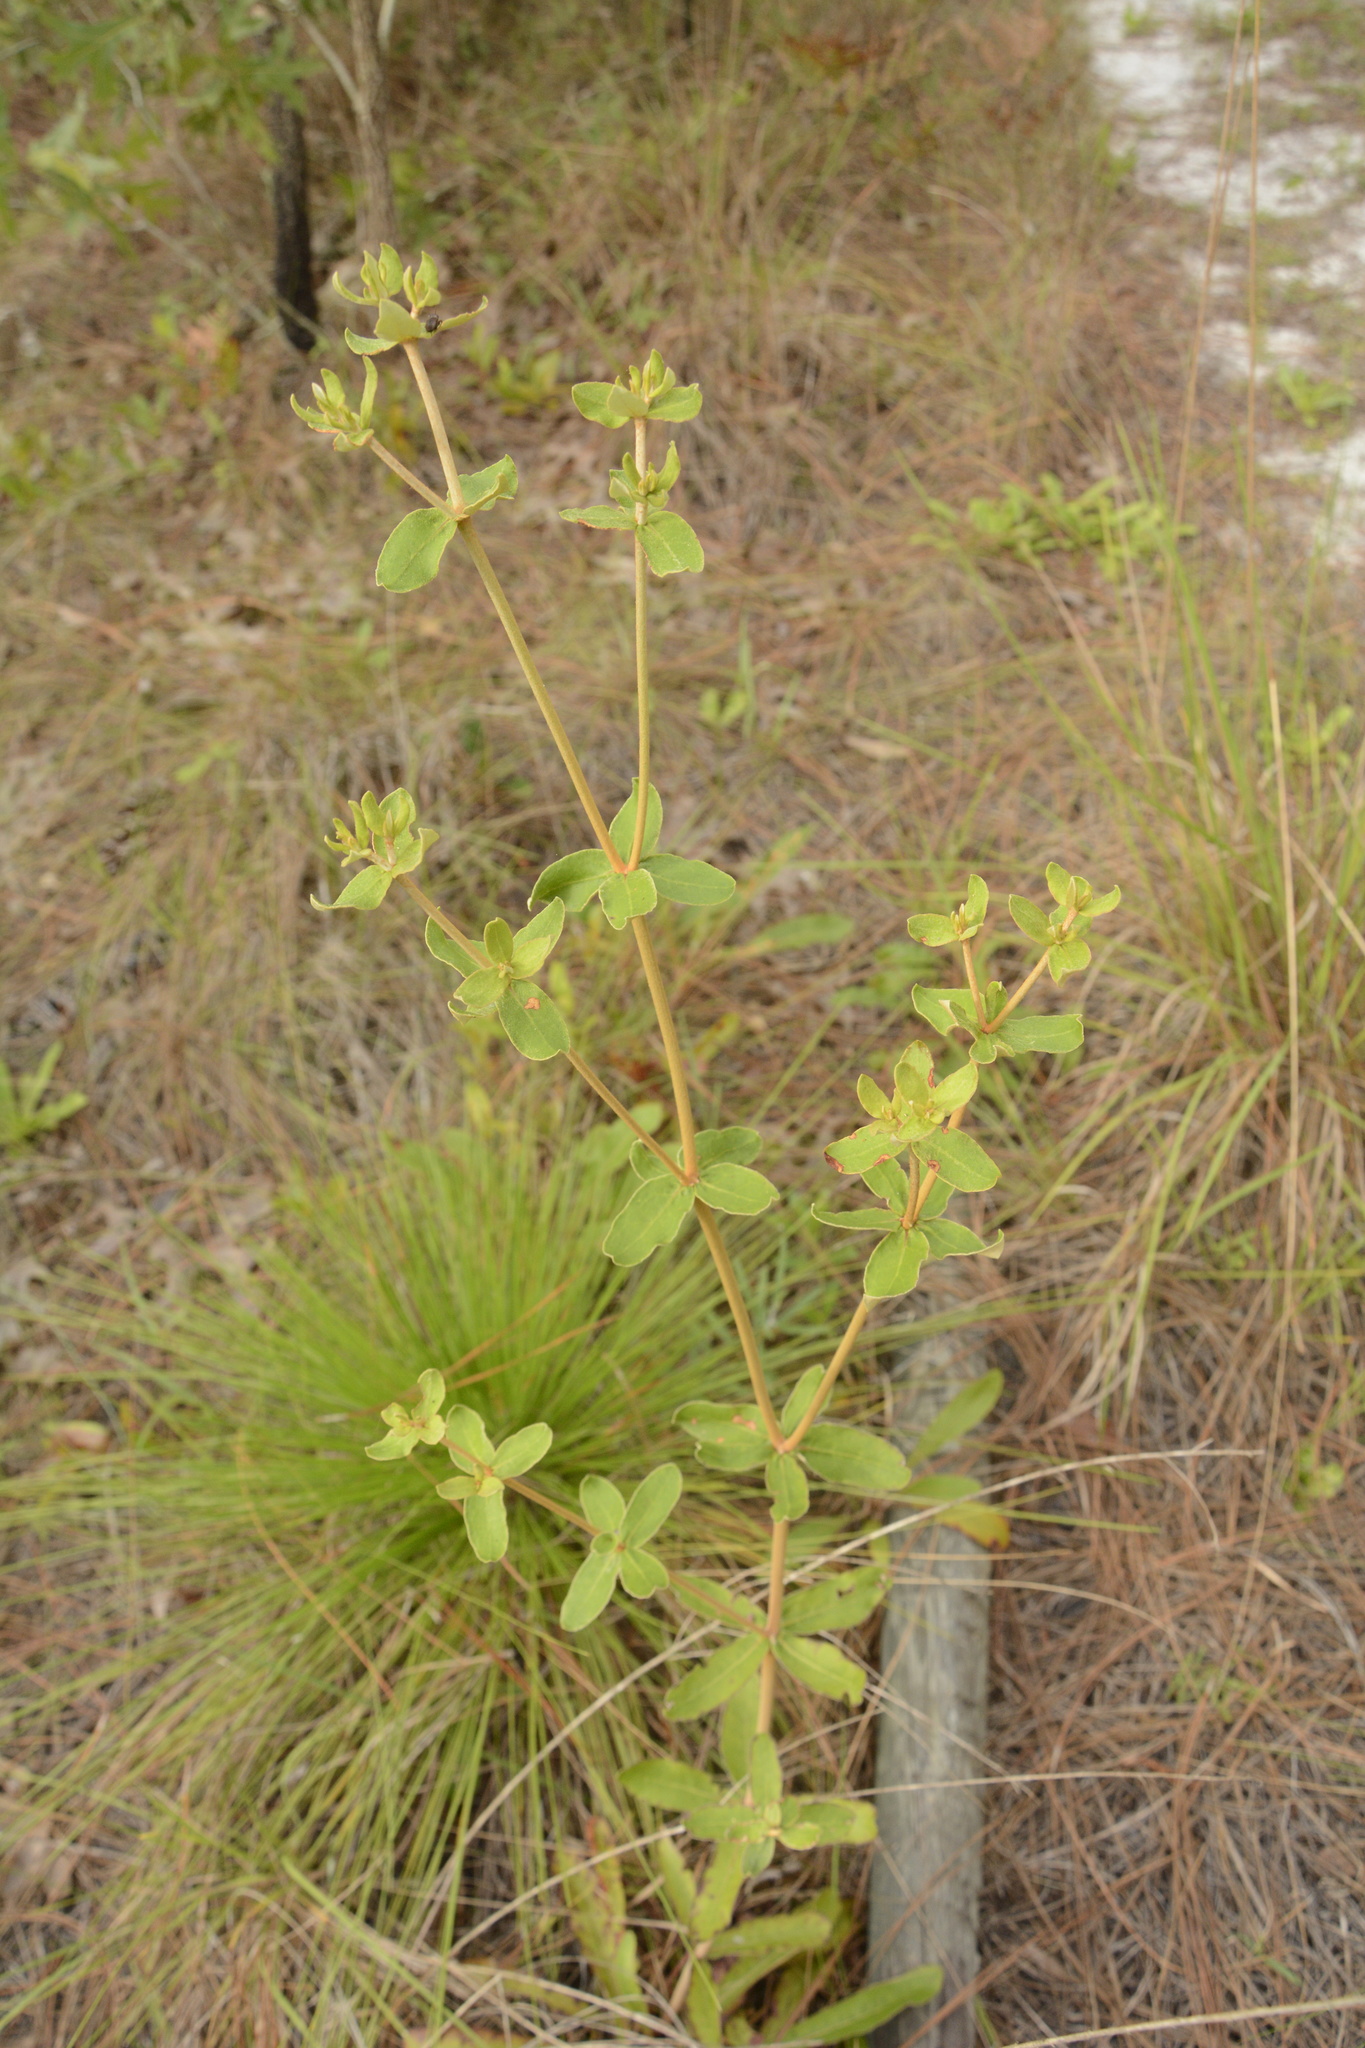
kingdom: Plantae
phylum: Tracheophyta
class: Magnoliopsida
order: Caryophyllales
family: Polygonaceae
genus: Eriogonum
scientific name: Eriogonum tomentosum
